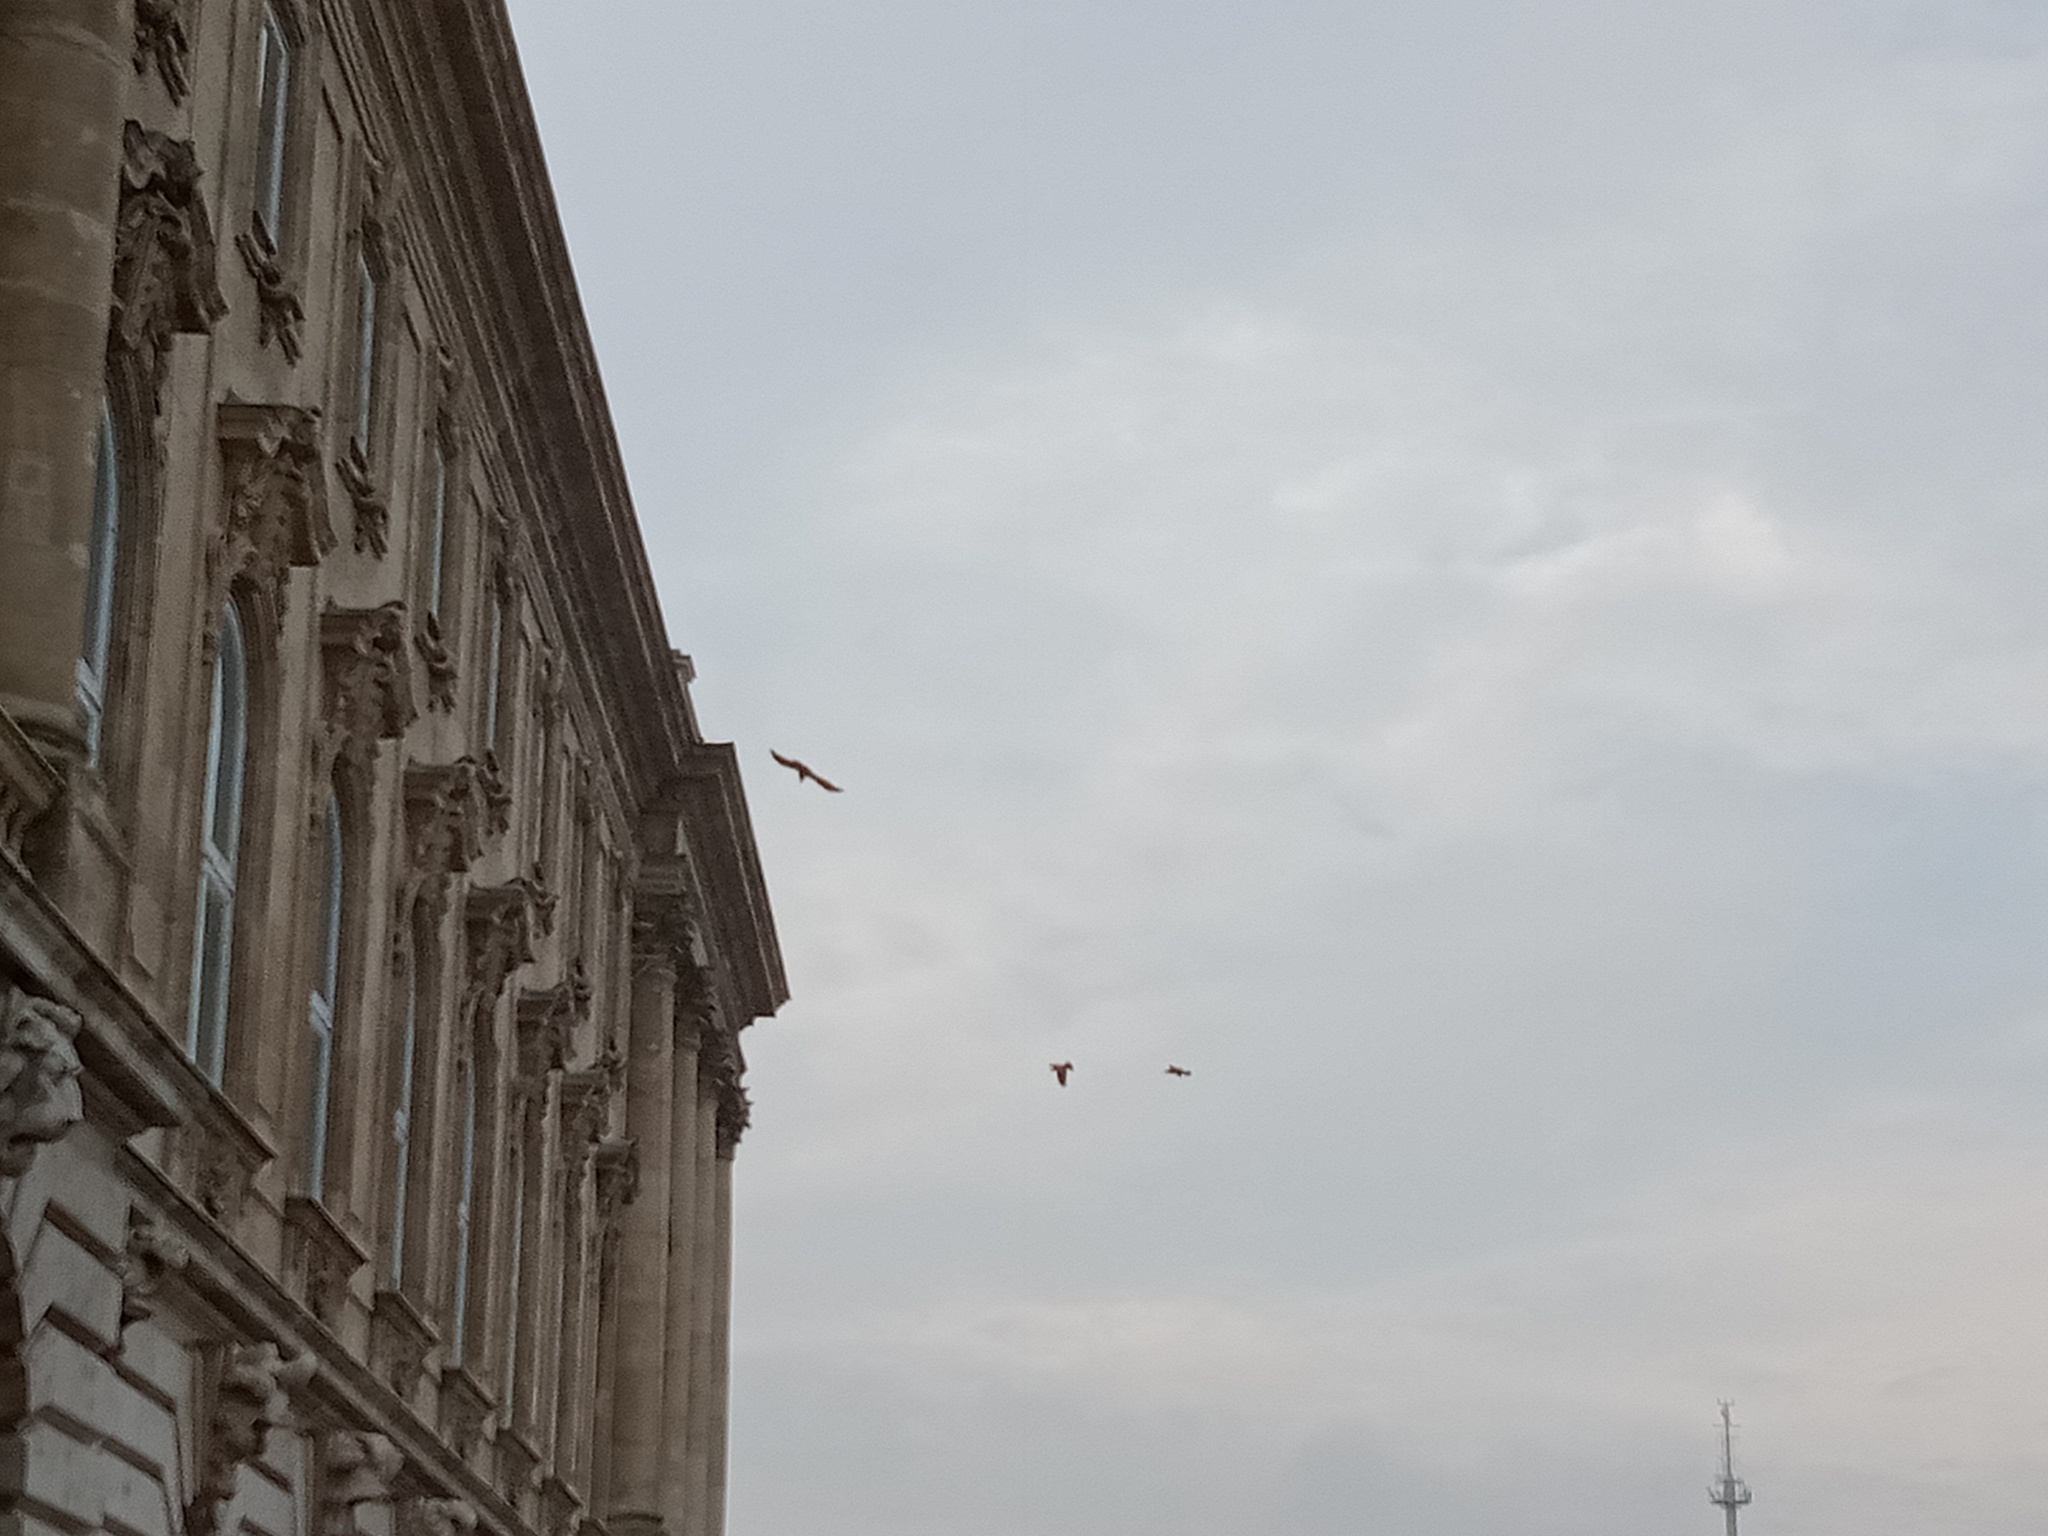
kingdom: Animalia
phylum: Chordata
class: Aves
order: Passeriformes
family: Corvidae
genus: Corvus
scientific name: Corvus cornix
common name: Hooded crow
